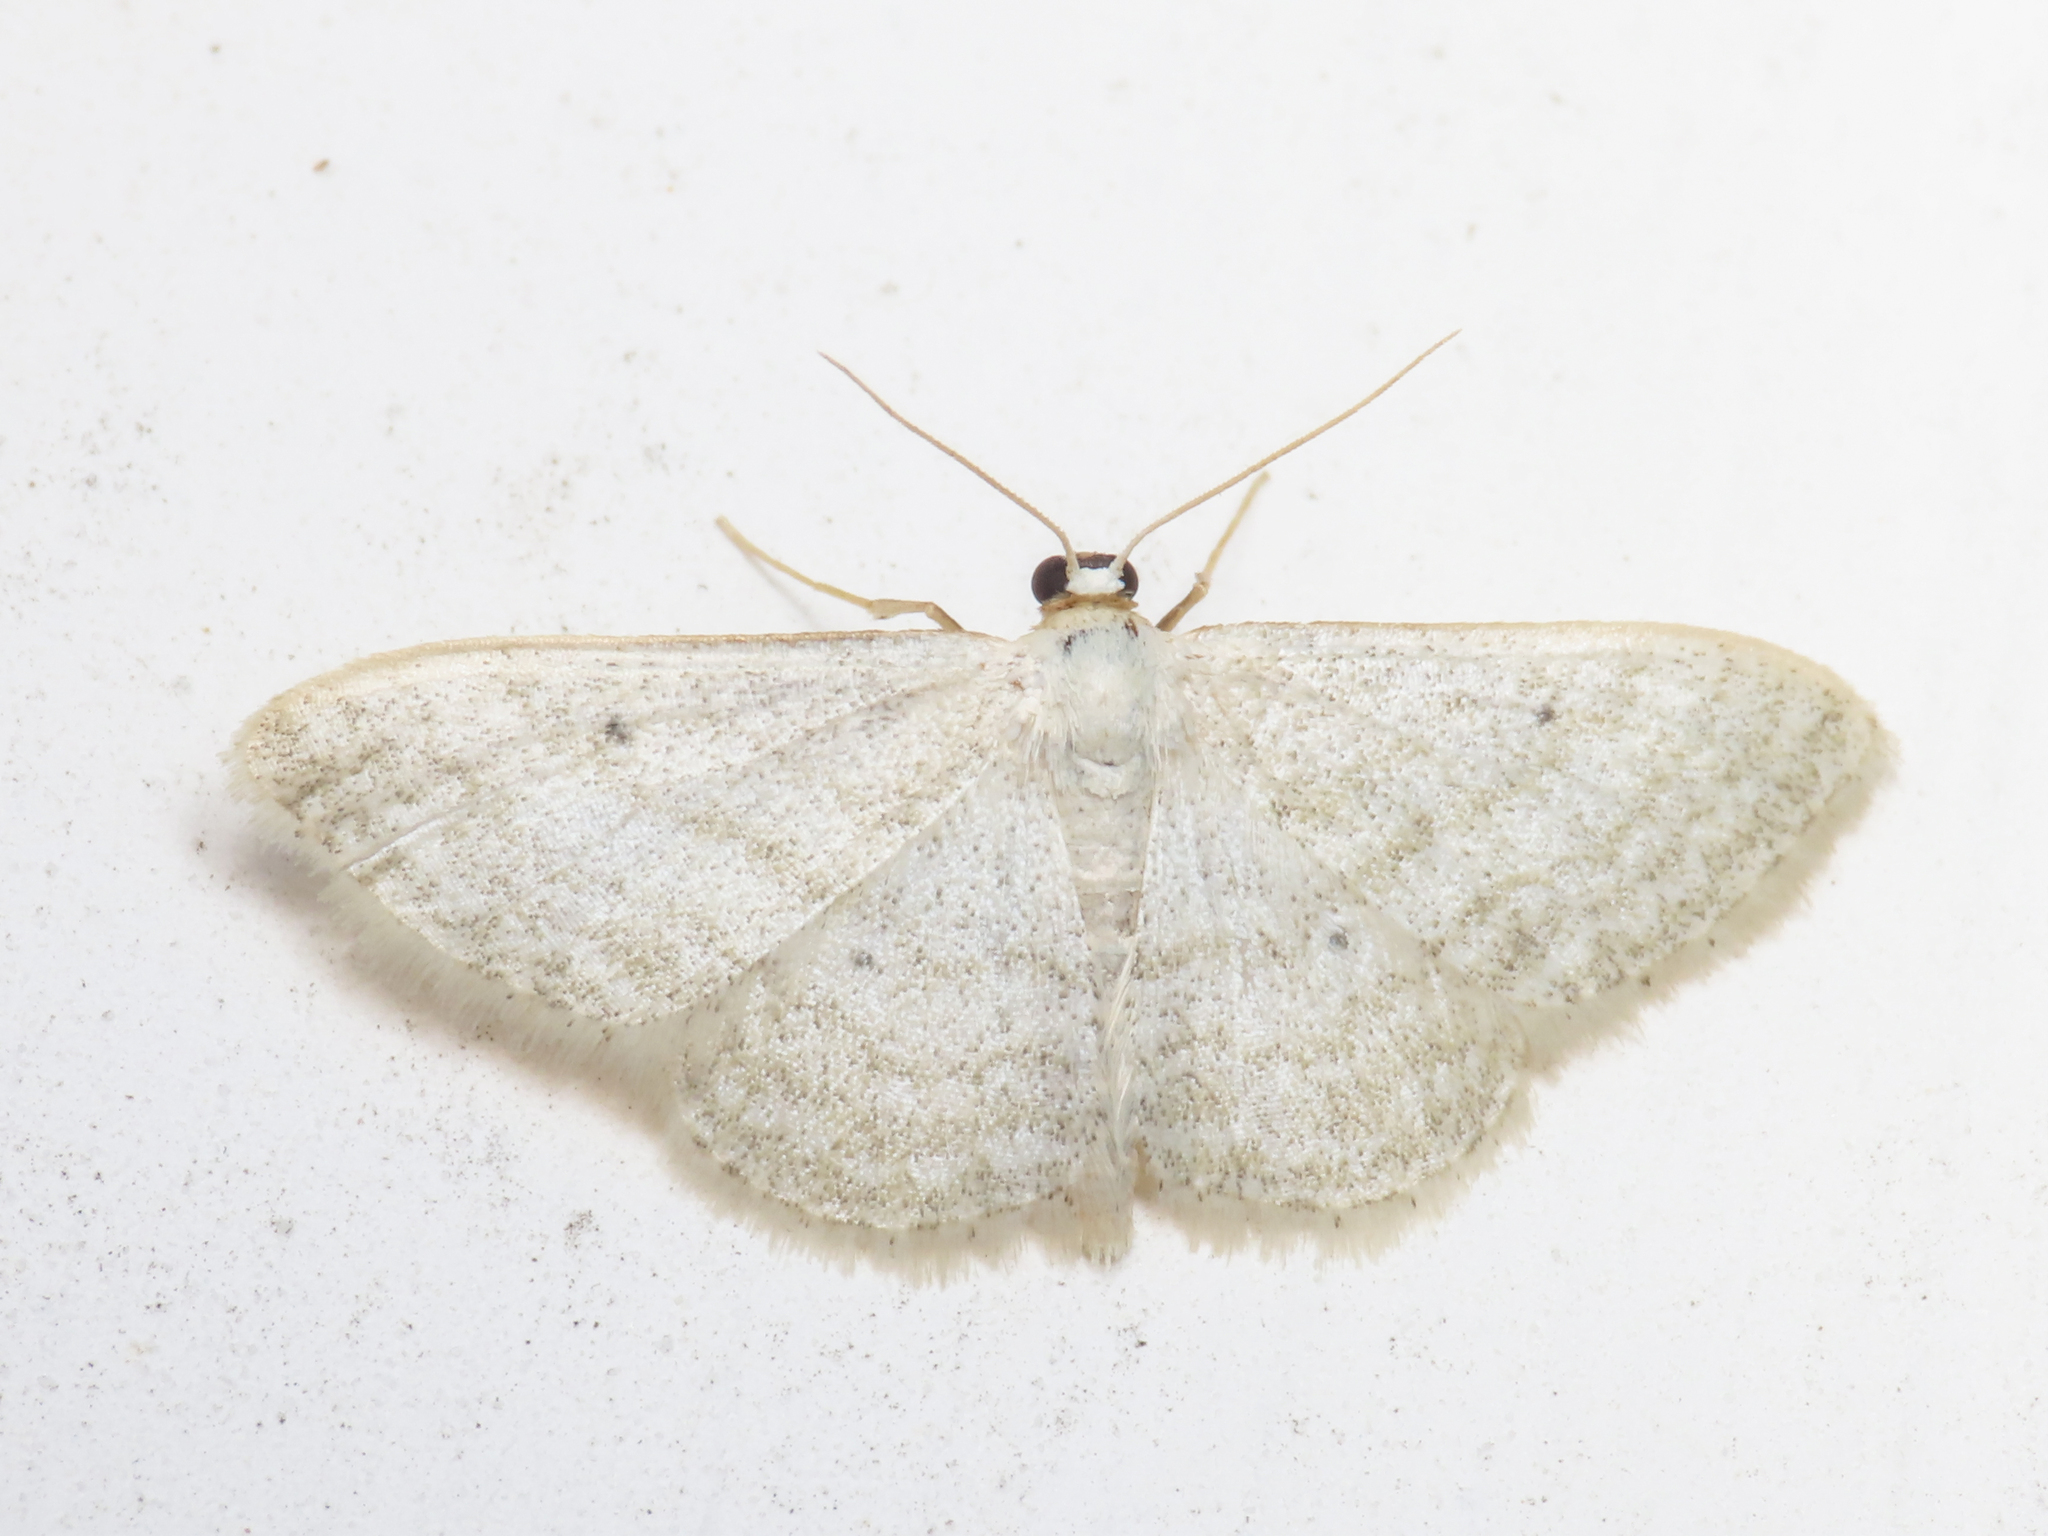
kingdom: Animalia
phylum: Arthropoda
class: Insecta
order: Lepidoptera
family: Geometridae
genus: Idaea
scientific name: Idaea subsericeata
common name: Satin wave
